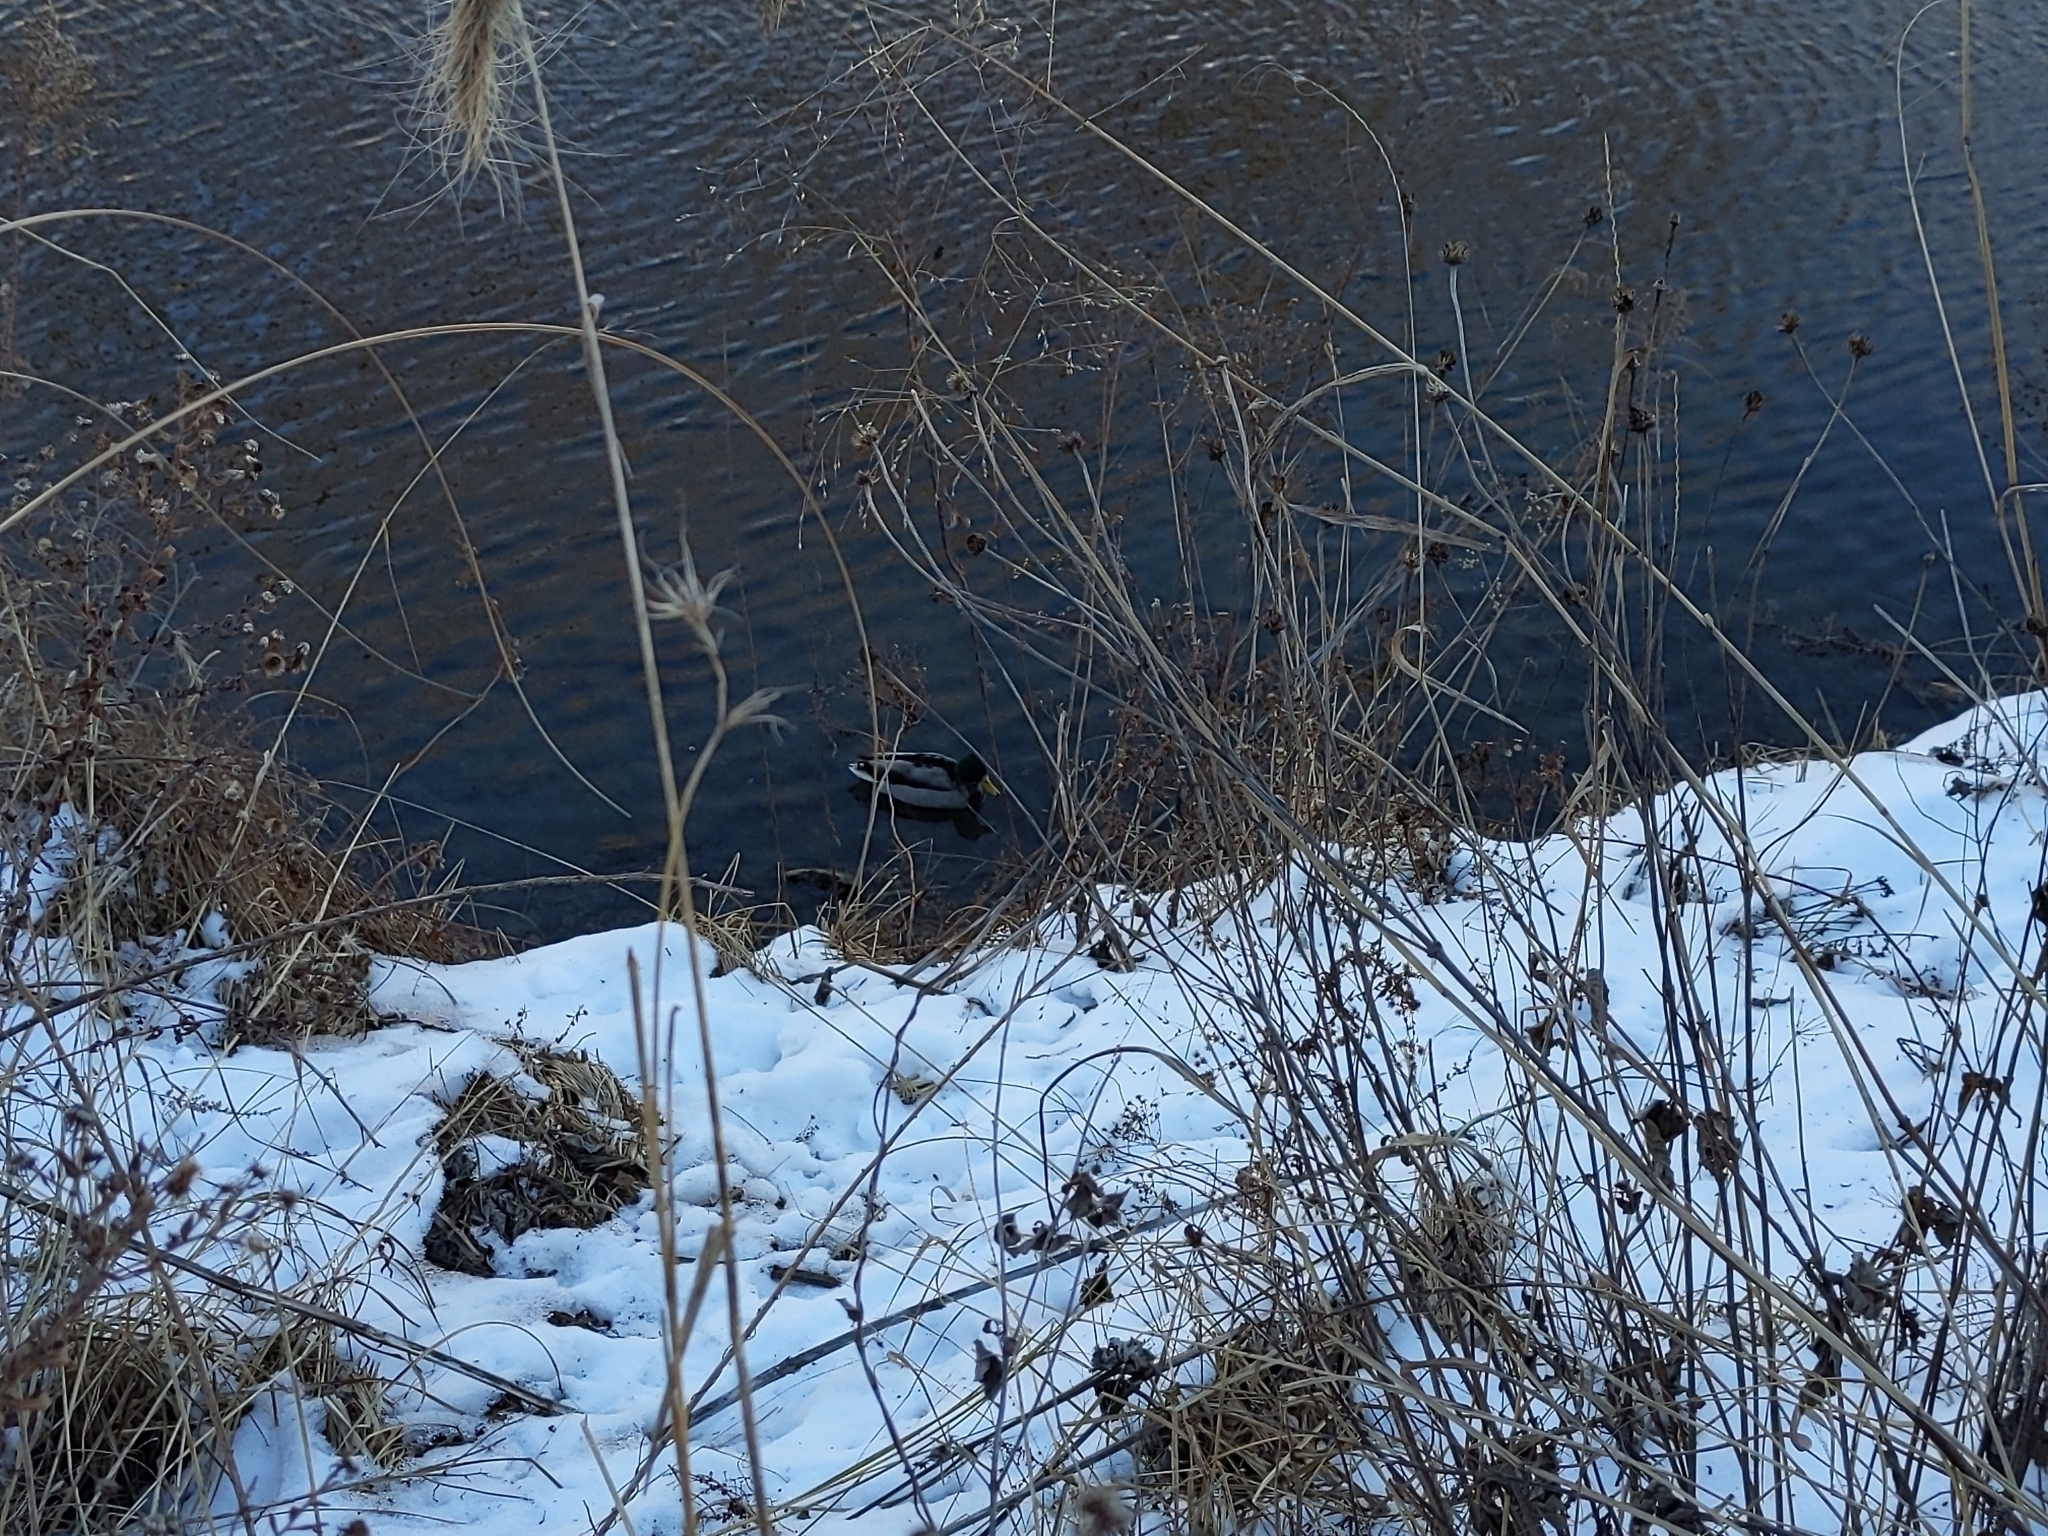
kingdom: Animalia
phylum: Chordata
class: Aves
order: Anseriformes
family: Anatidae
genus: Anas
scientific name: Anas platyrhynchos
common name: Mallard
